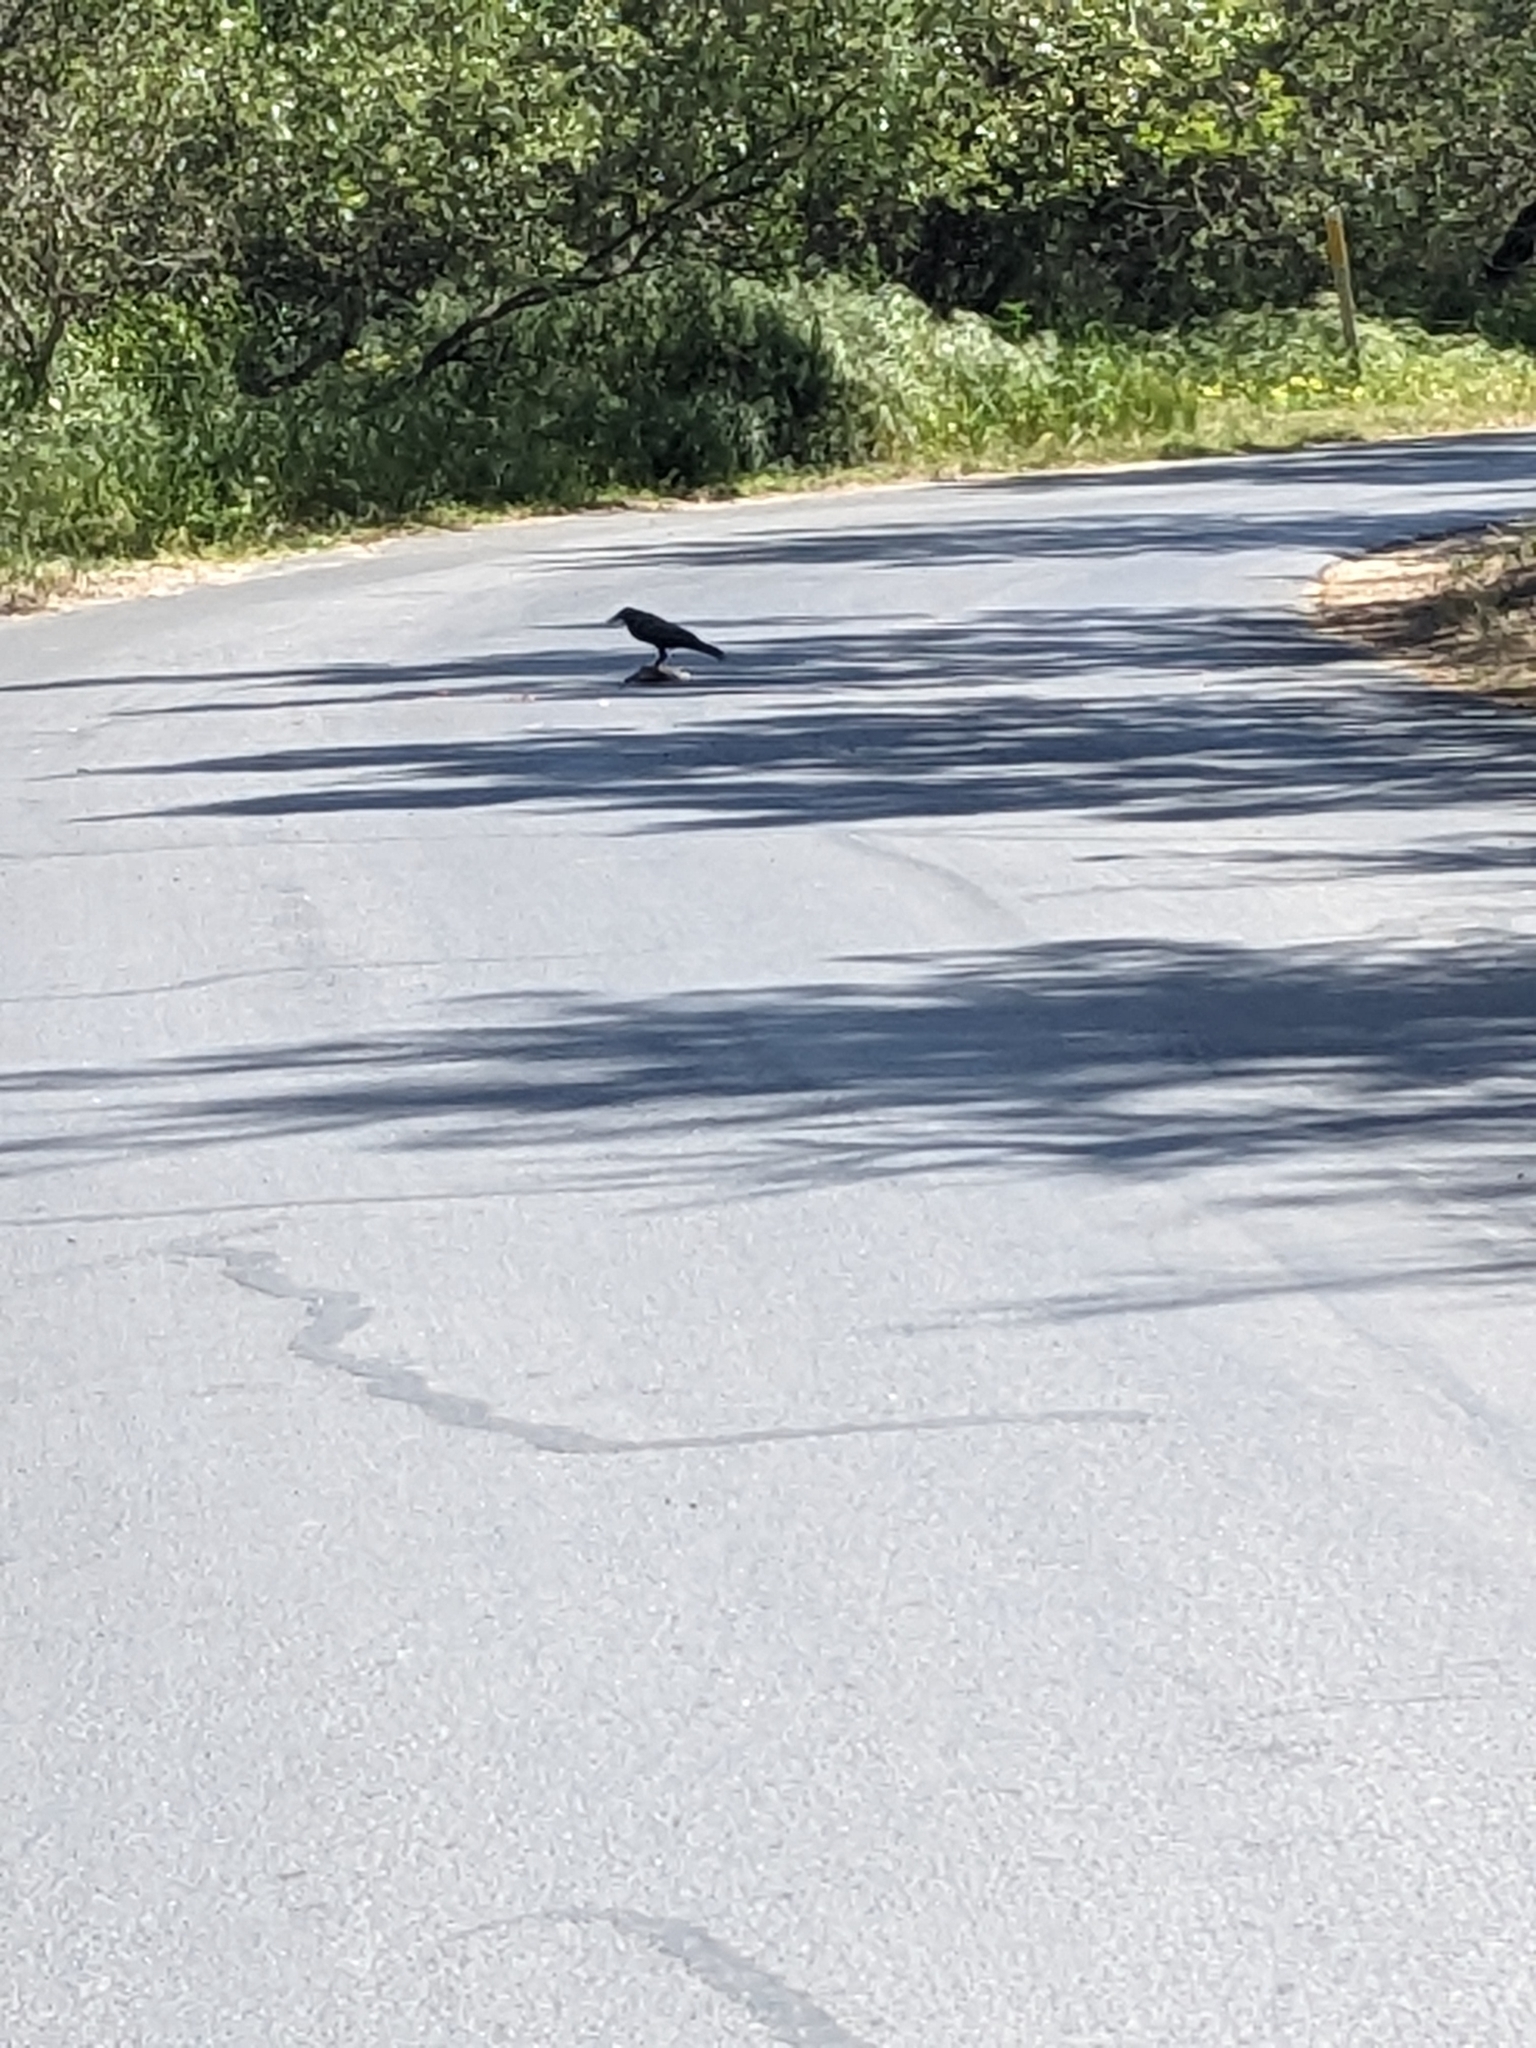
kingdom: Animalia
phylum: Chordata
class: Aves
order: Passeriformes
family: Corvidae
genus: Corvus
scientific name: Corvus brachyrhynchos
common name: American crow
